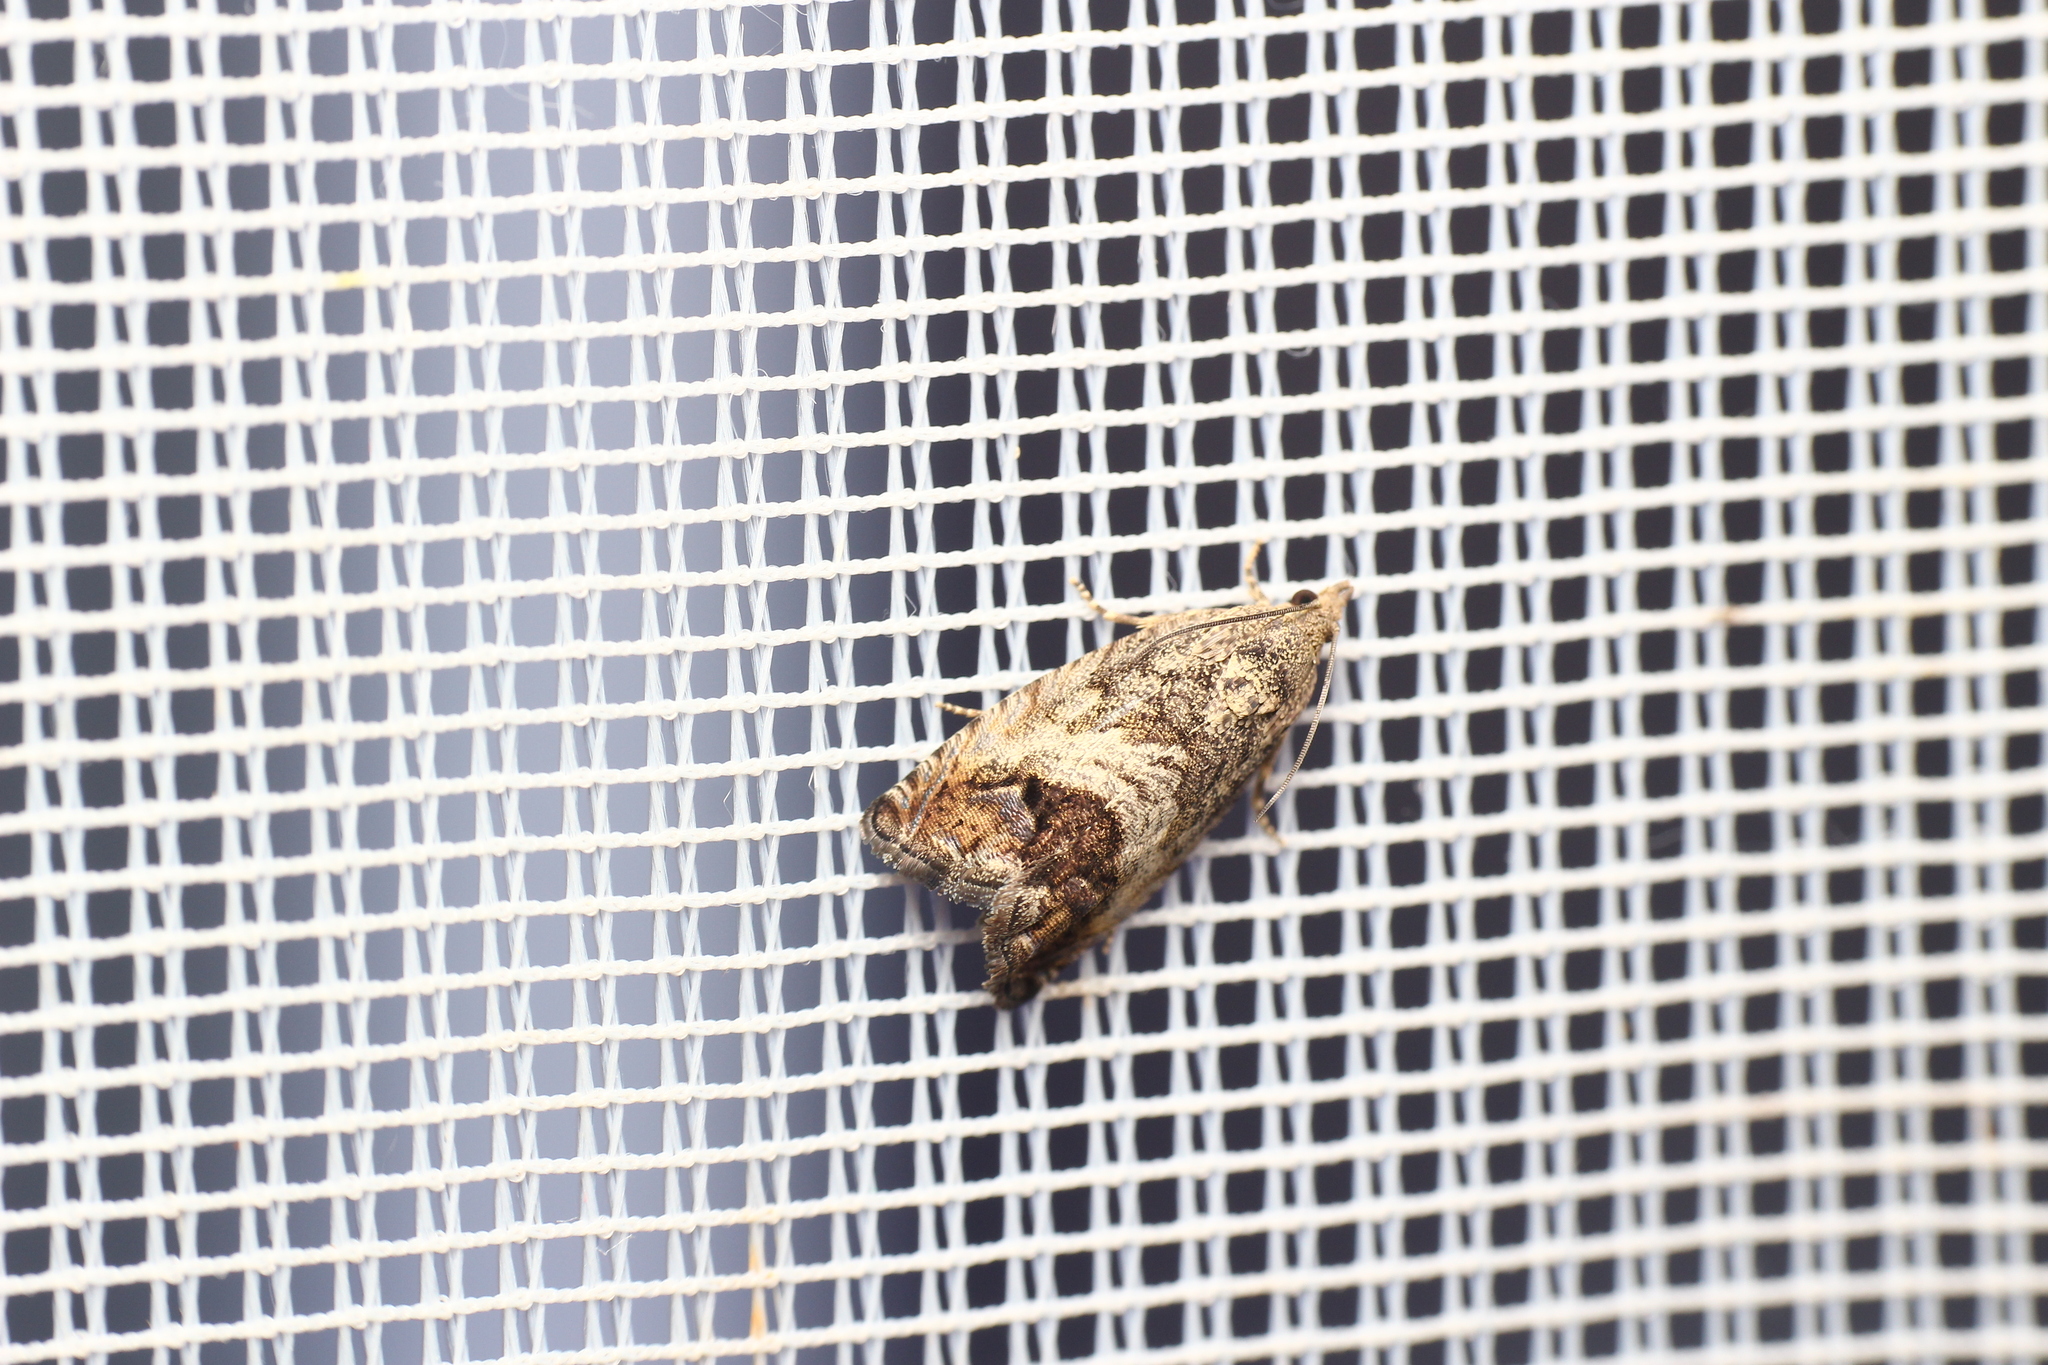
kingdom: Animalia
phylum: Arthropoda
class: Insecta
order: Lepidoptera
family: Tortricidae
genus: Cydia
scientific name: Cydia splendana
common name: De: kastanienwickler, eichenwickler es: oruga de la castaña fr: carpocapse des châtaignes it: cidia o tortrice tardiva delle castagne pt: bichado das castanhas gb: acorn moth, chestnut fruit tortrix
